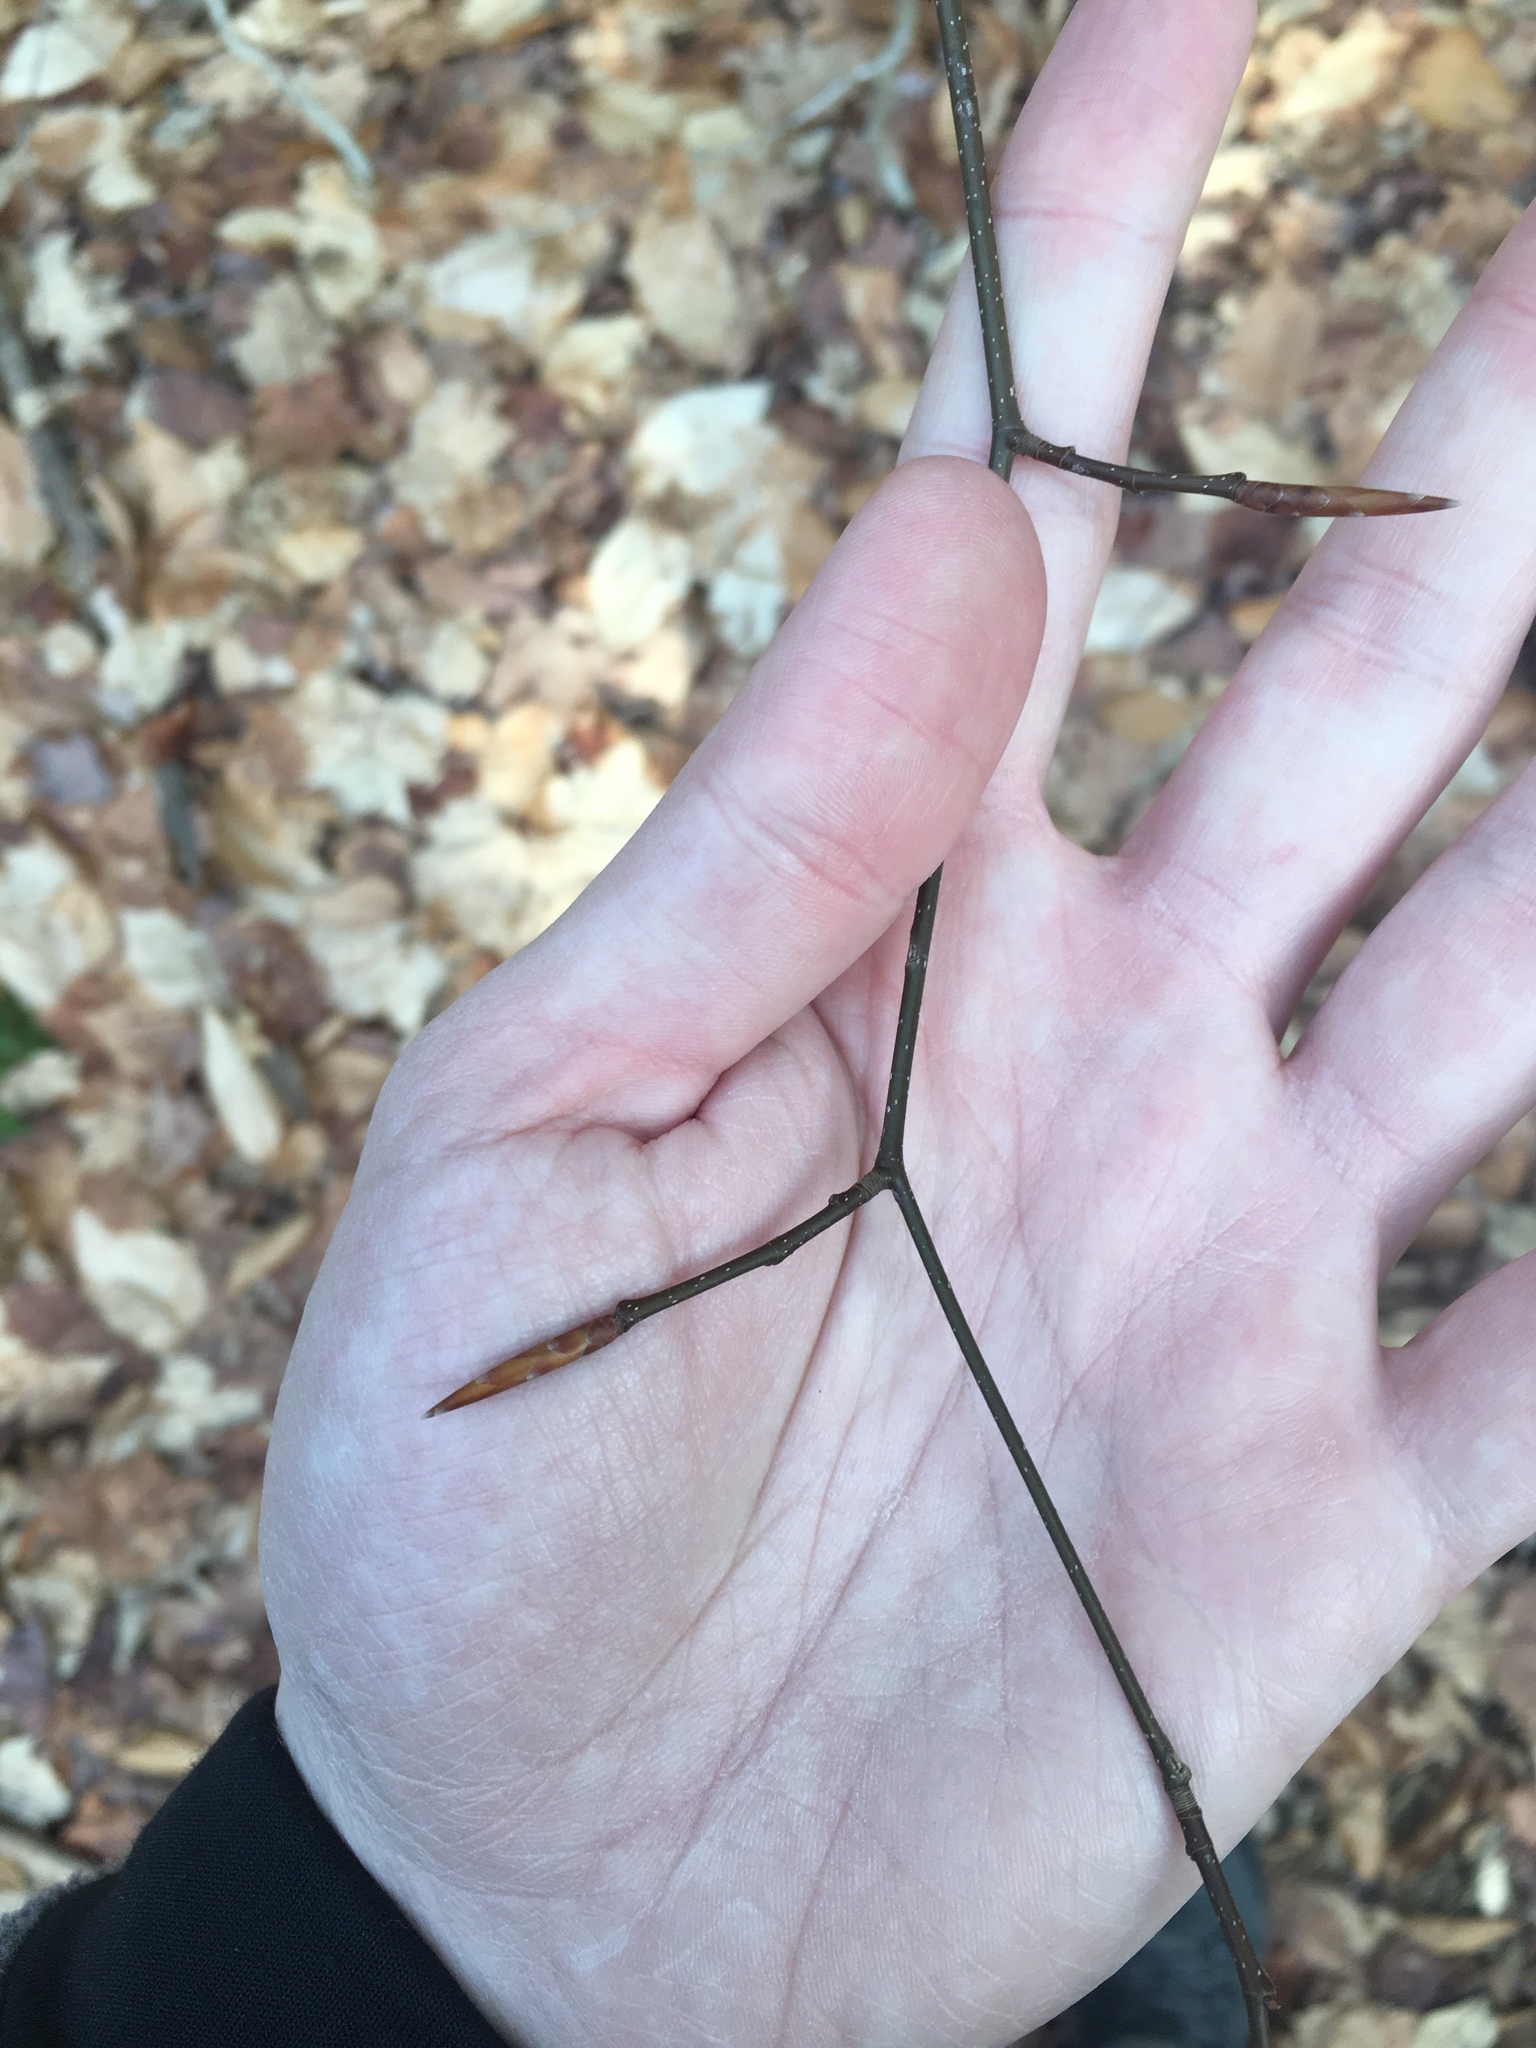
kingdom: Plantae
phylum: Tracheophyta
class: Magnoliopsida
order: Fagales
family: Fagaceae
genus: Fagus
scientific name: Fagus grandifolia
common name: American beech
